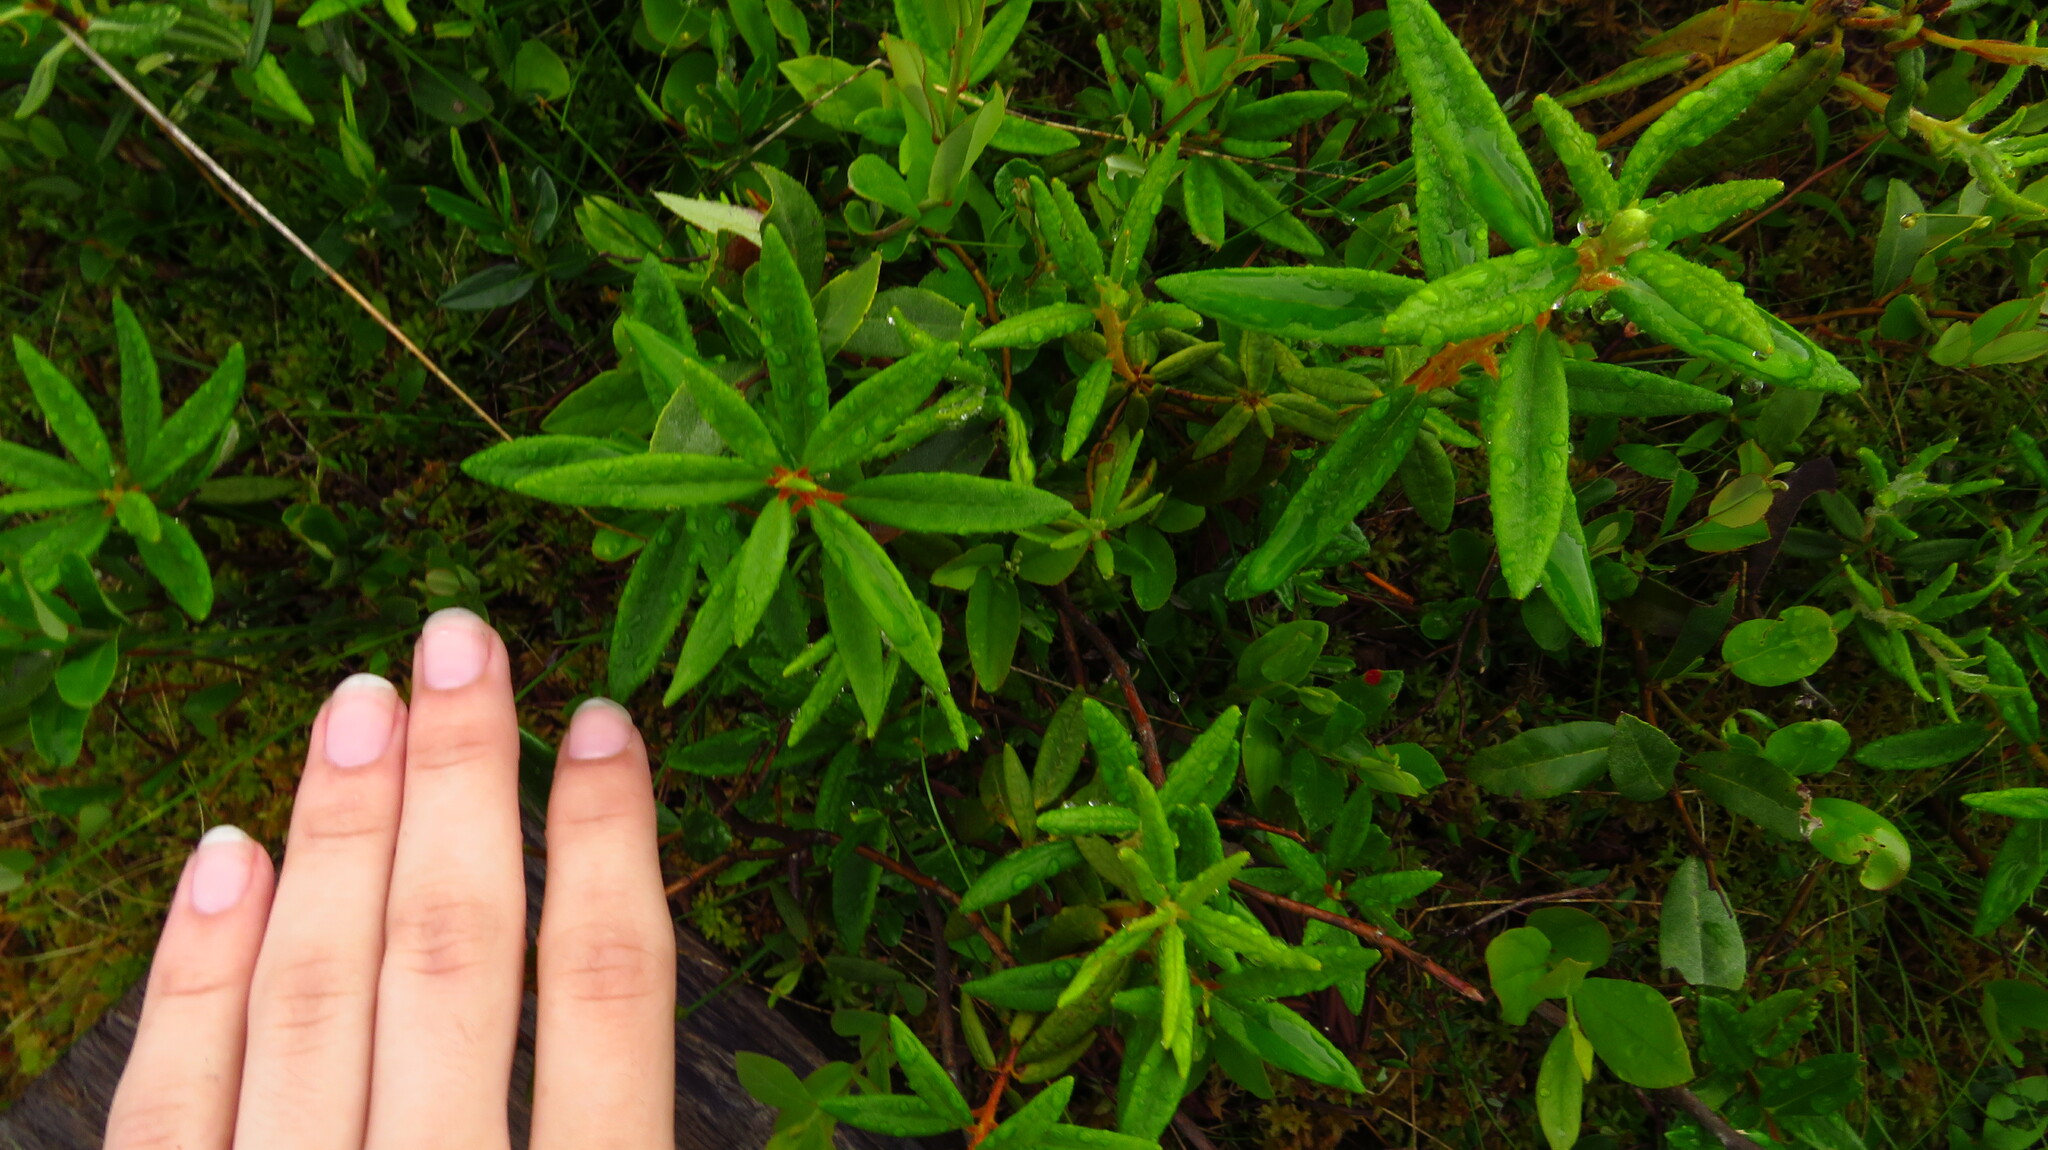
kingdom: Plantae
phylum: Tracheophyta
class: Magnoliopsida
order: Ericales
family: Ericaceae
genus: Rhododendron
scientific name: Rhododendron groenlandicum
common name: Bog labrador tea
